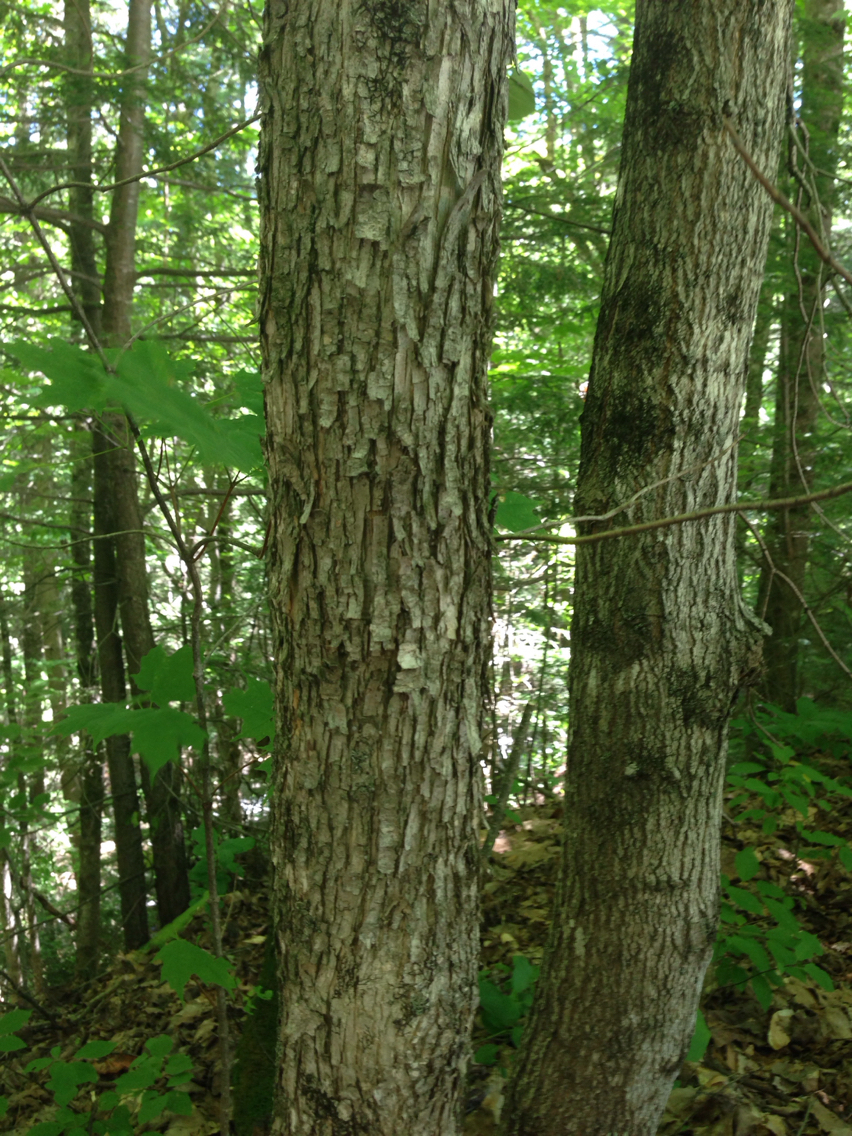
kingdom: Plantae
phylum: Tracheophyta
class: Magnoliopsida
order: Fagales
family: Betulaceae
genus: Ostrya
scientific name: Ostrya virginiana
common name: Ironwood
